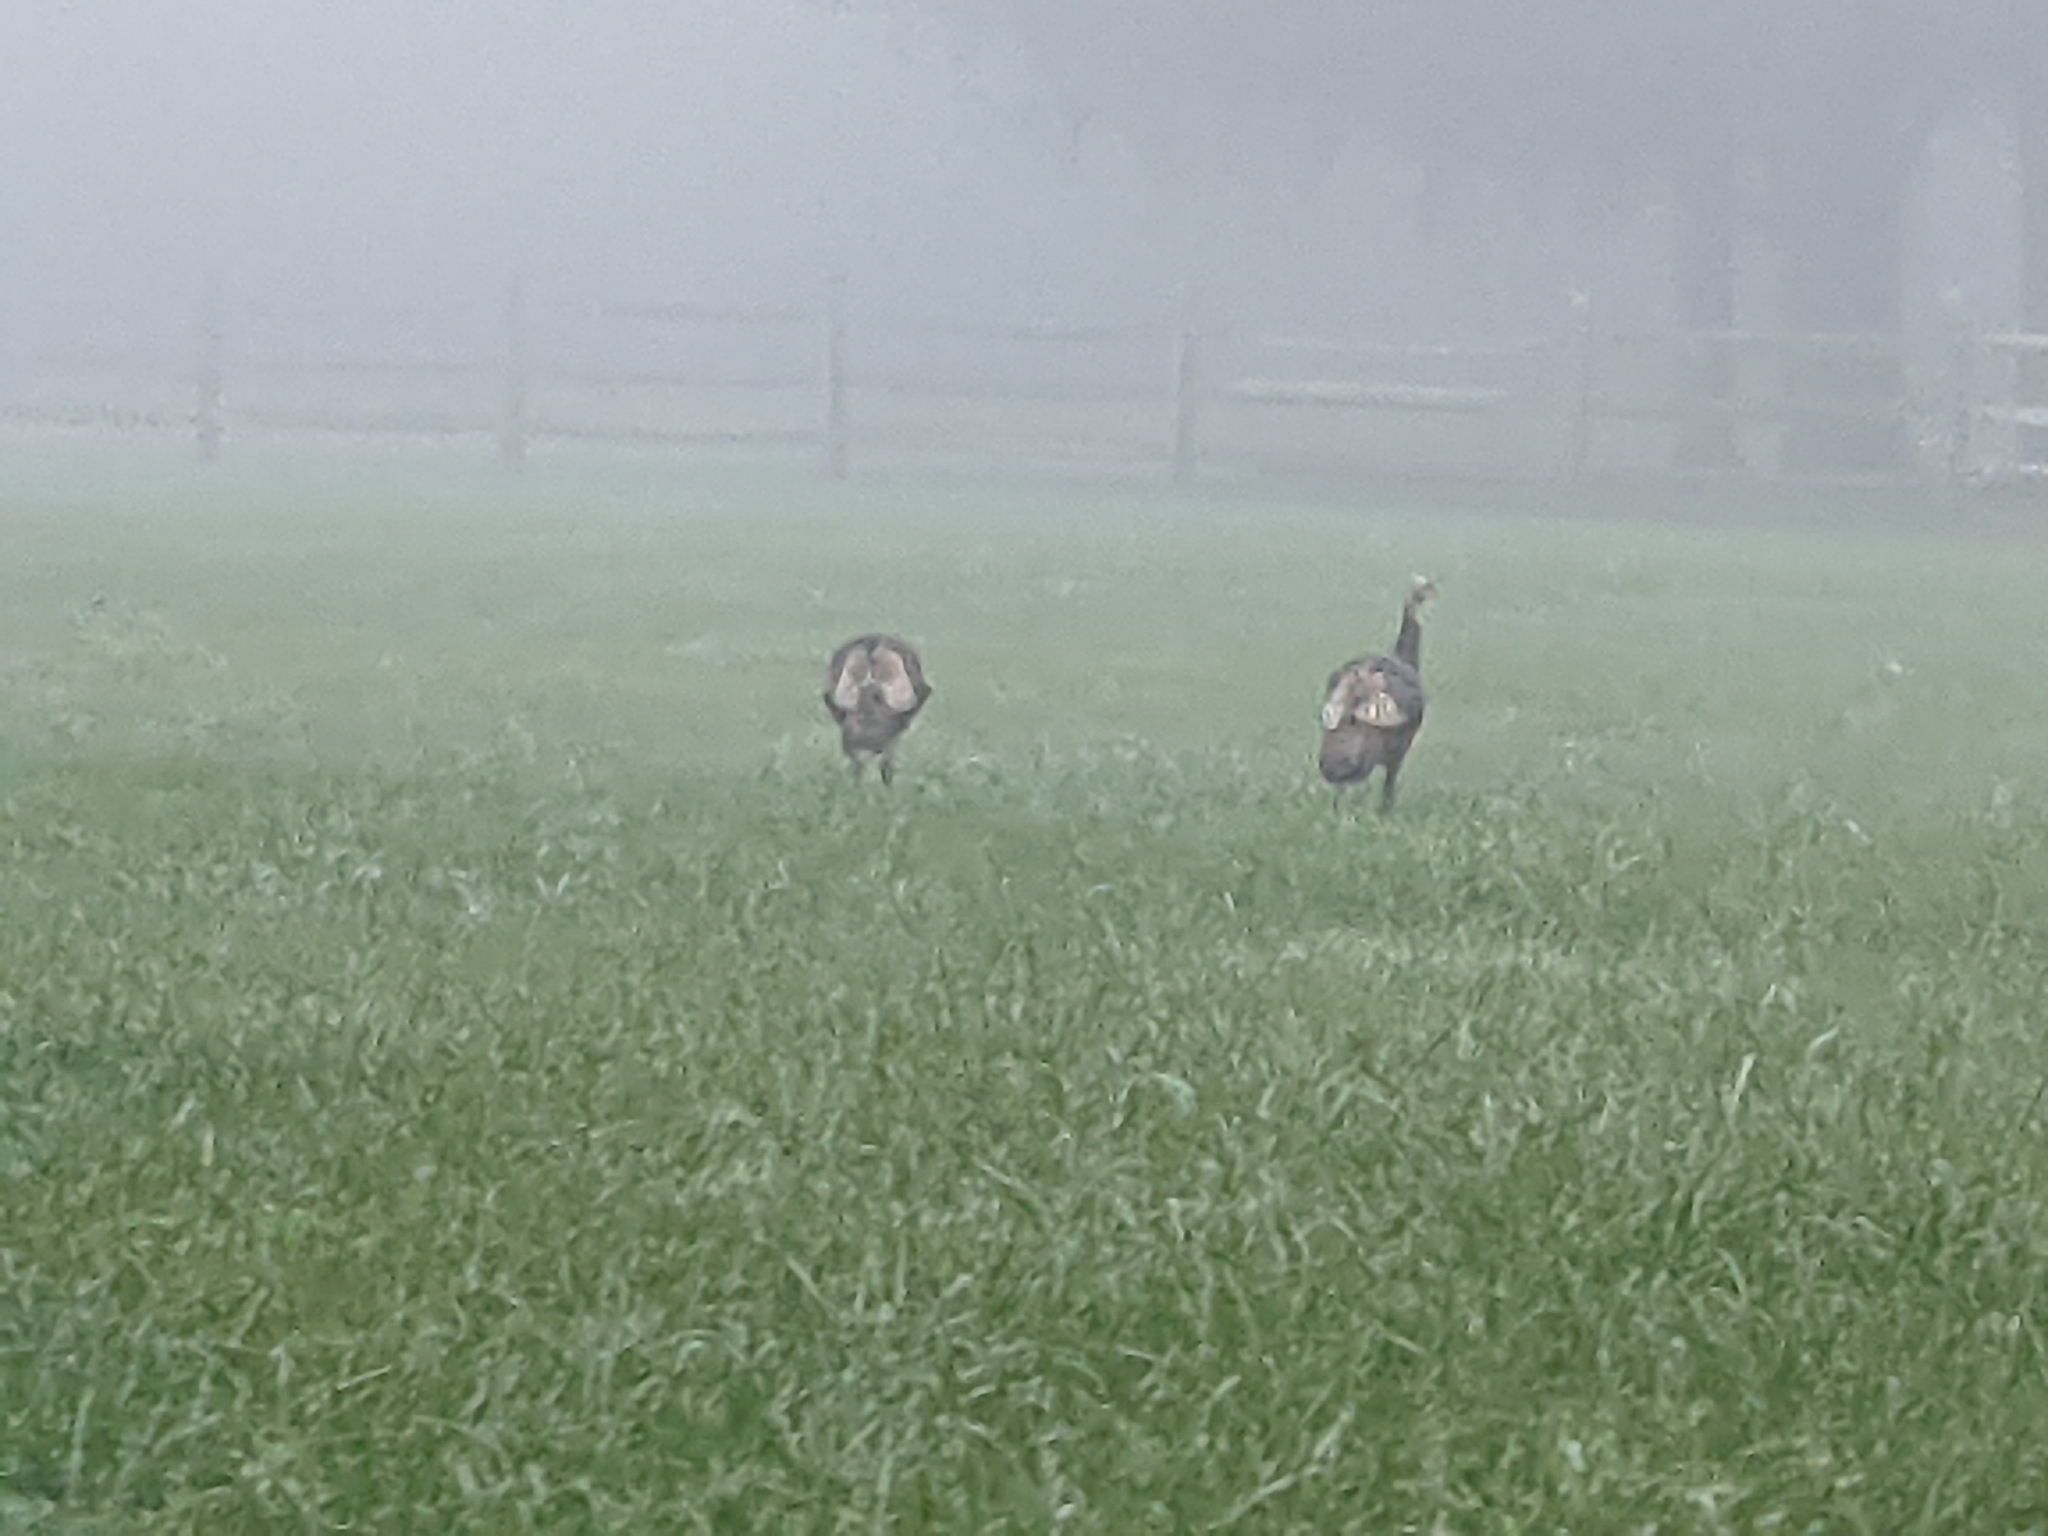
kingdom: Animalia
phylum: Chordata
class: Aves
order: Galliformes
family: Phasianidae
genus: Meleagris
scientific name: Meleagris gallopavo
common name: Wild turkey
